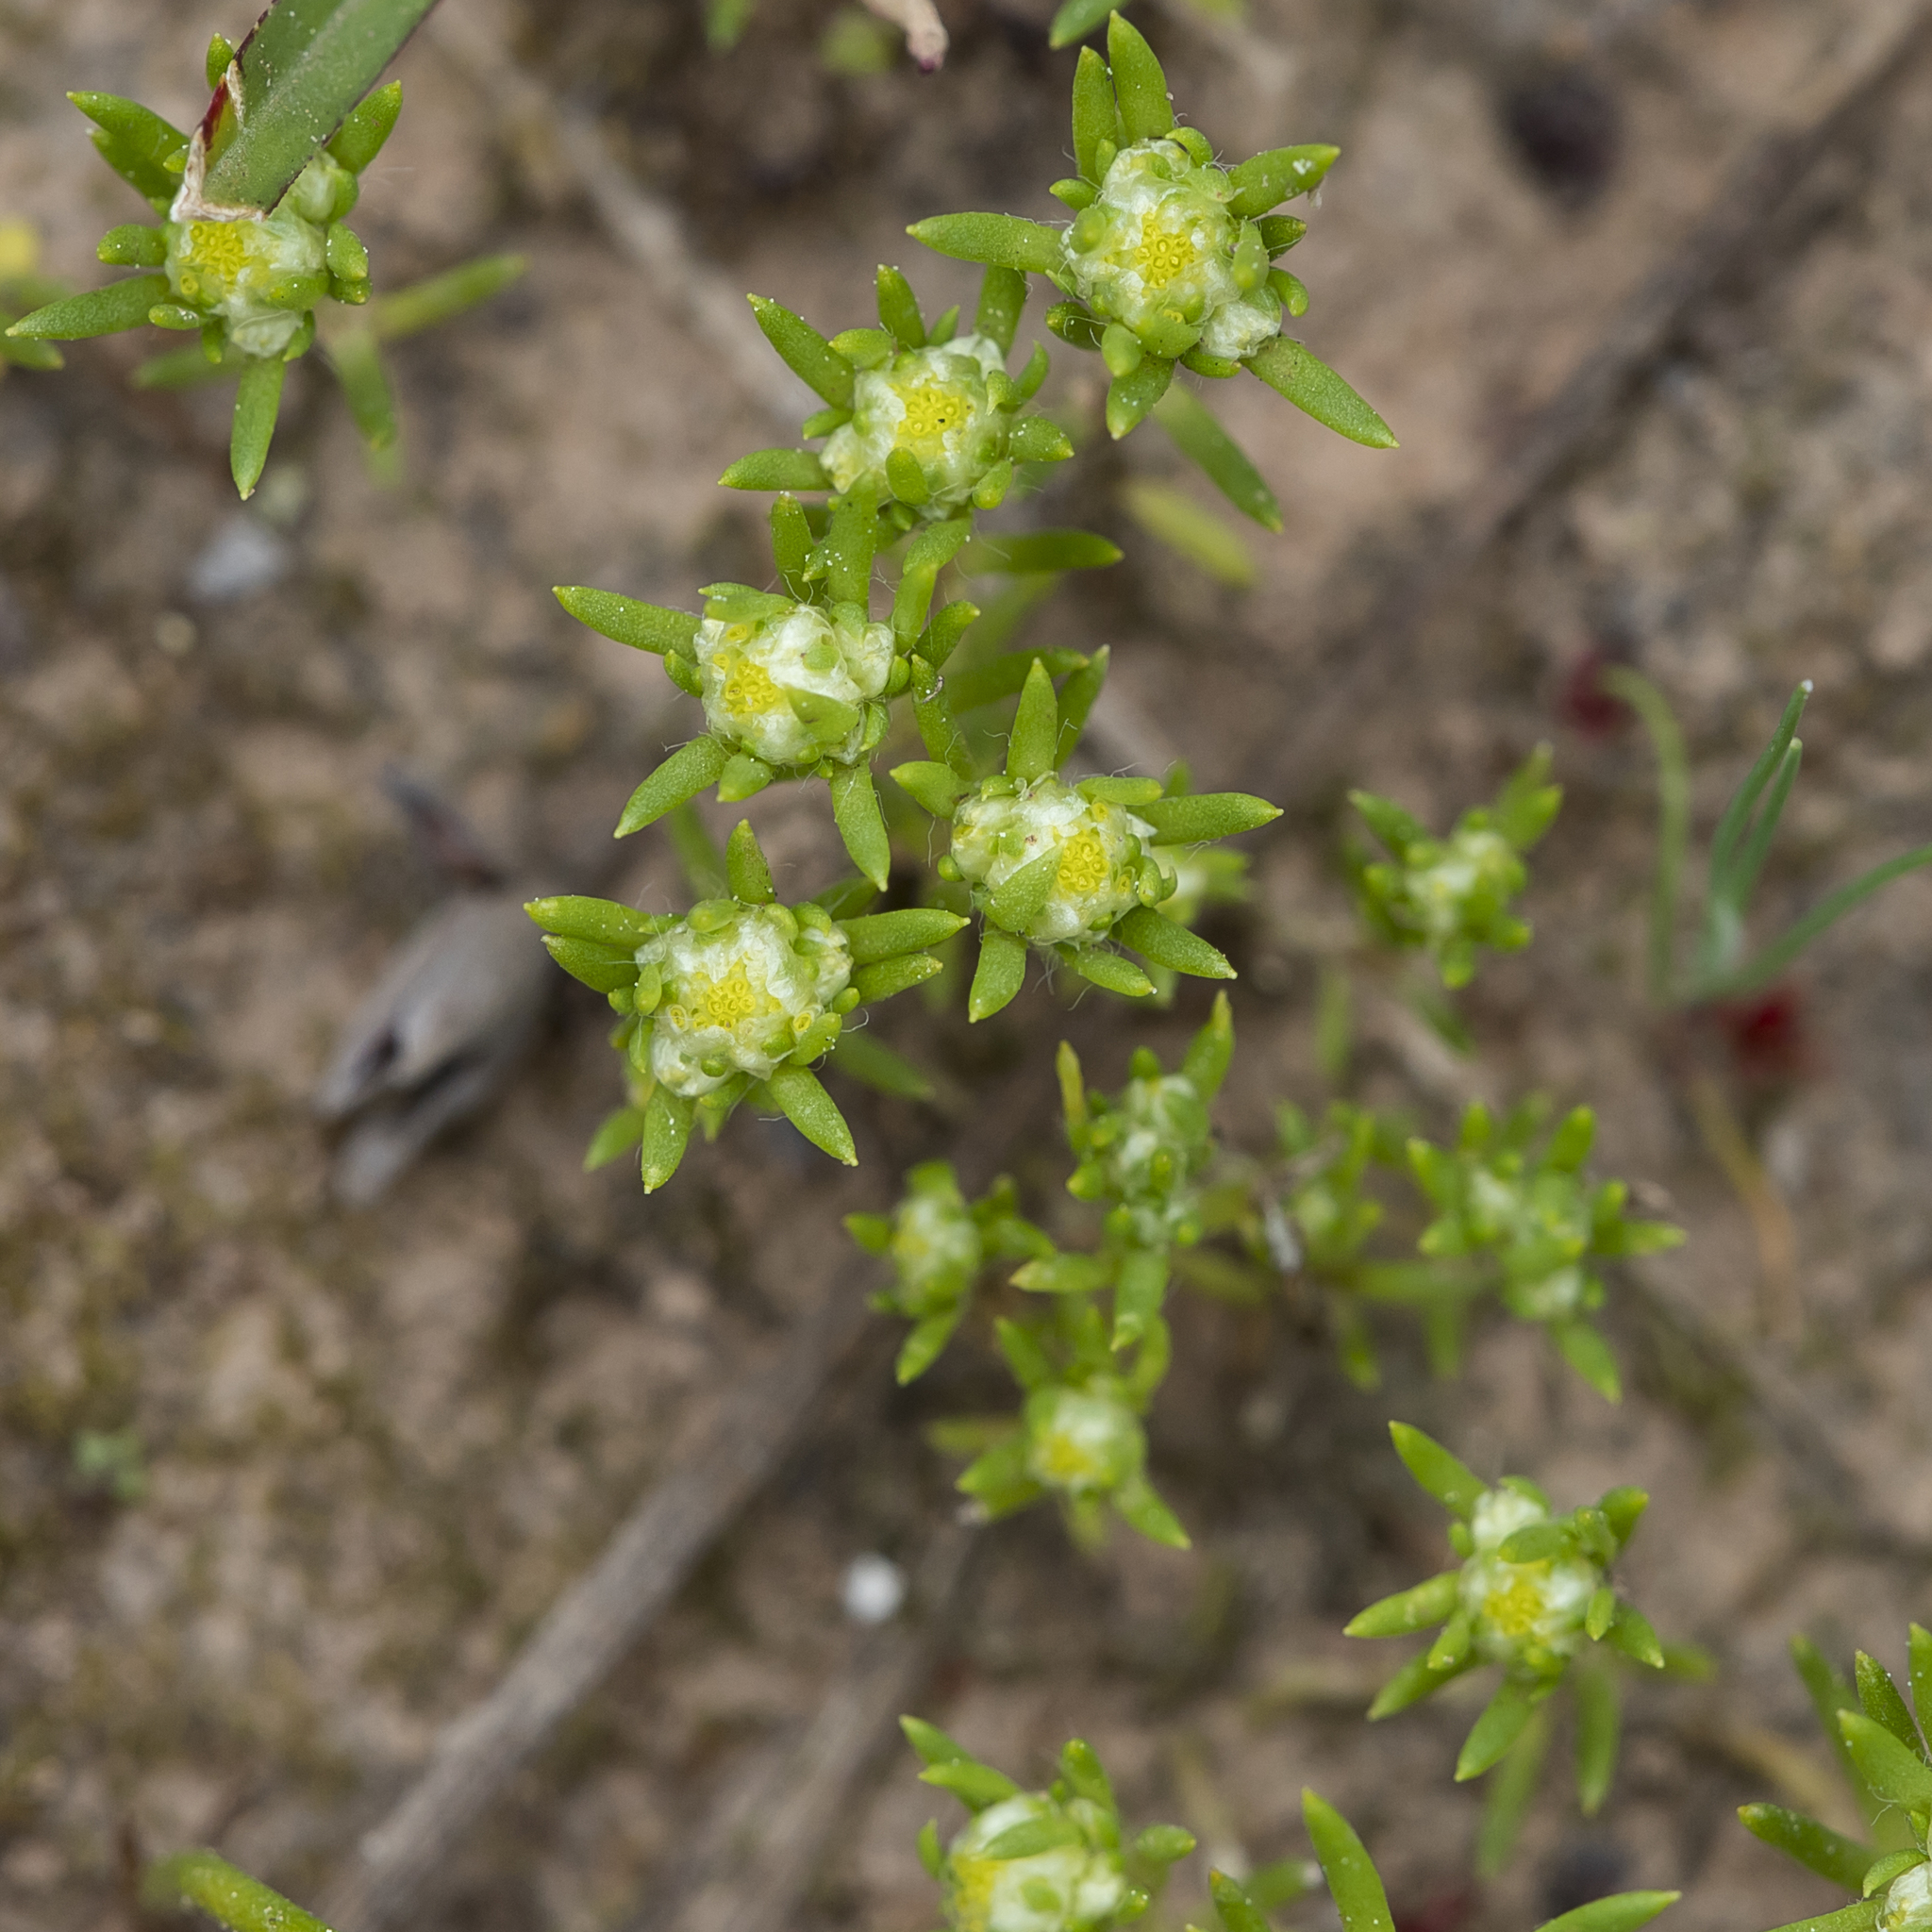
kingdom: Plantae
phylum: Tracheophyta
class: Magnoliopsida
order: Asterales
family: Asteraceae
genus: Siloxerus
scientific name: Siloxerus multiflorus
